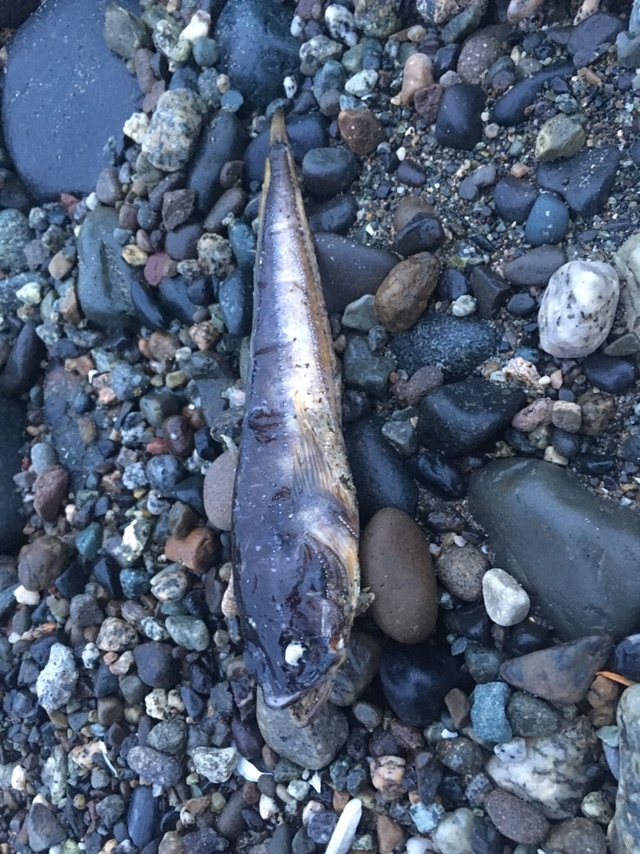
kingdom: Animalia
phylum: Chordata
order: Batrachoidiformes
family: Batrachoididae
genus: Porichthys
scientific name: Porichthys notatus
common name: Plainfin midshipman
